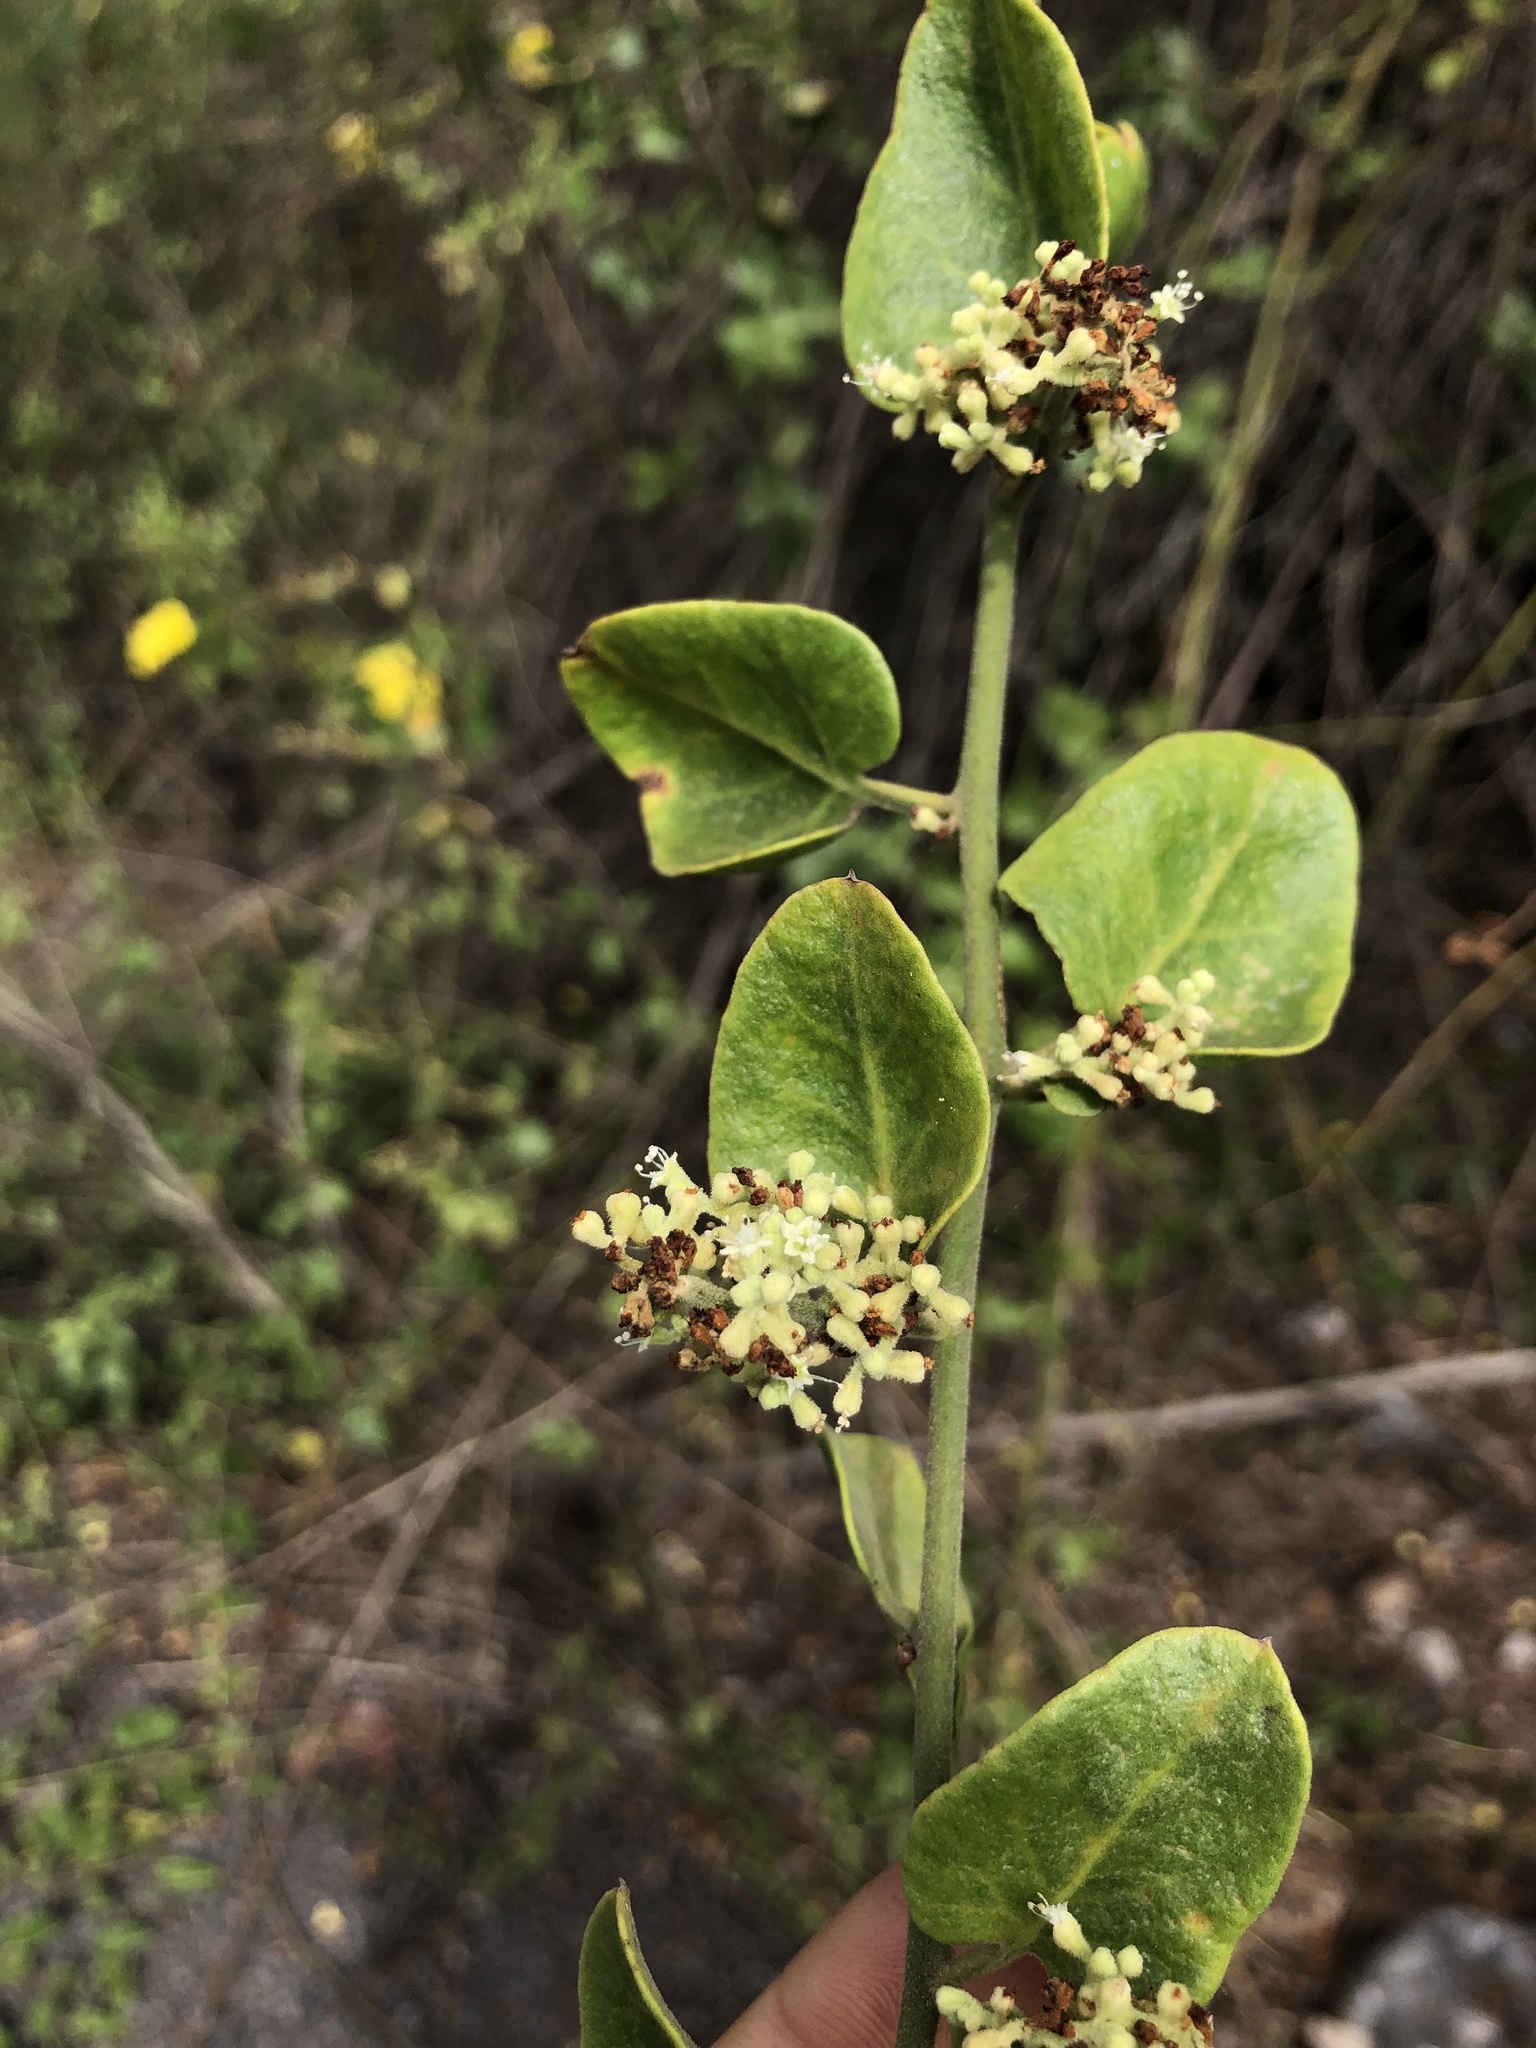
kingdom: Plantae
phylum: Tracheophyta
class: Magnoliopsida
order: Caryophyllales
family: Nyctaginaceae
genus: Cryptocarpus
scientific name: Cryptocarpus pyriformis
